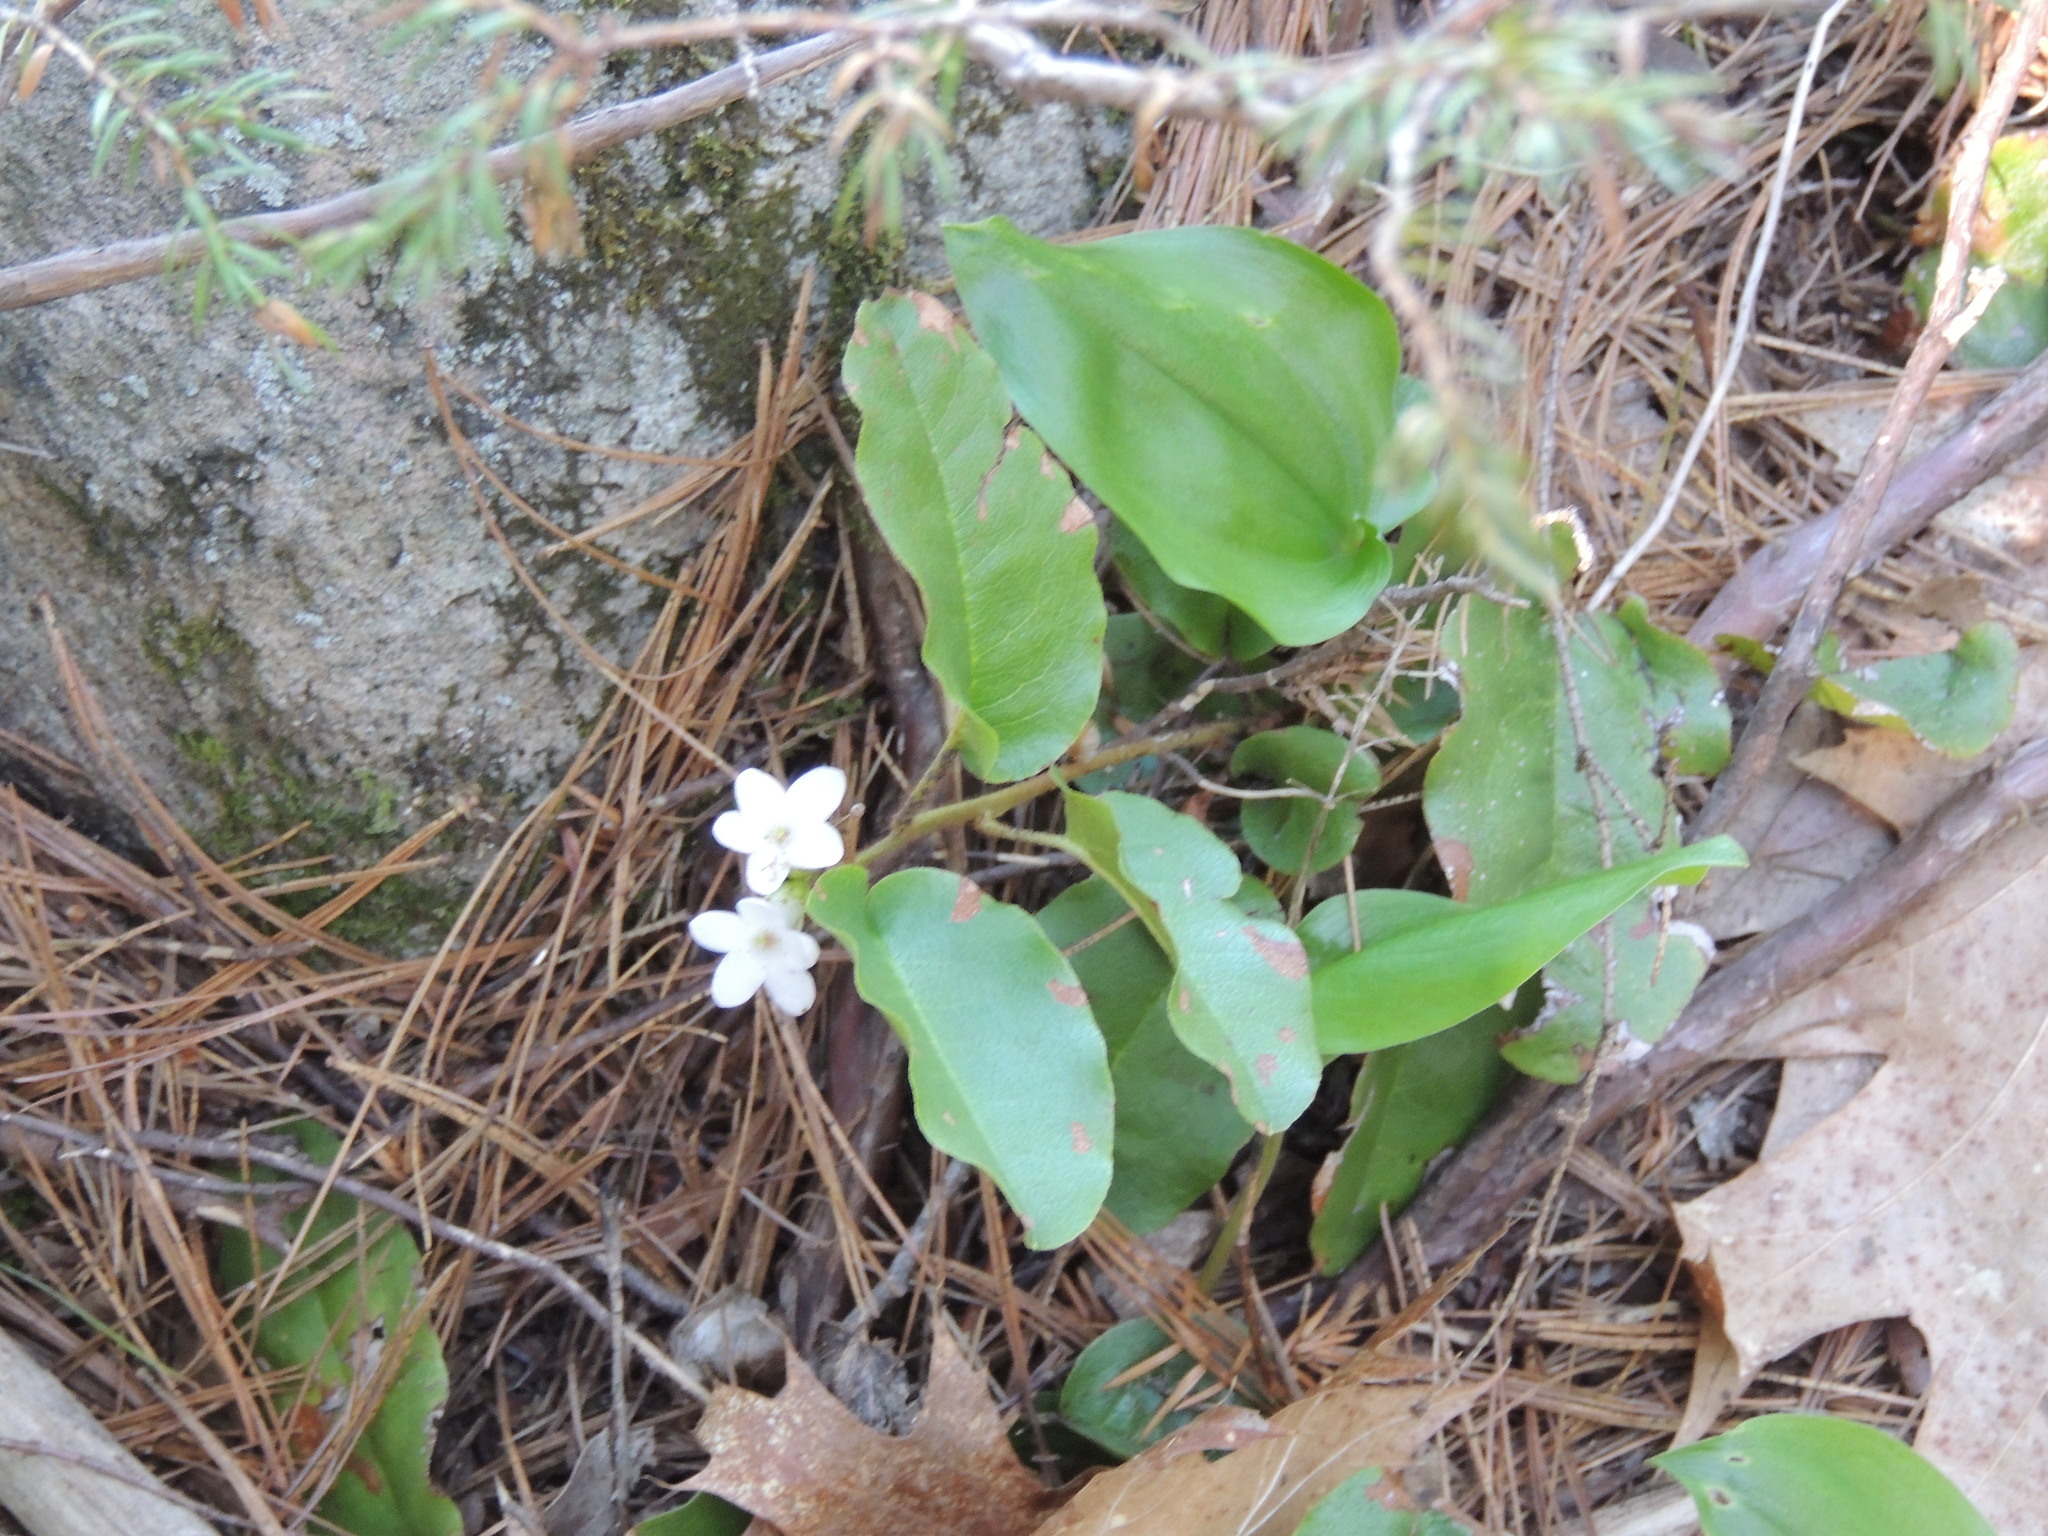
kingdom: Plantae
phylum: Tracheophyta
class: Magnoliopsida
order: Ericales
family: Ericaceae
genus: Epigaea
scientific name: Epigaea repens
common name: Gravelroot
